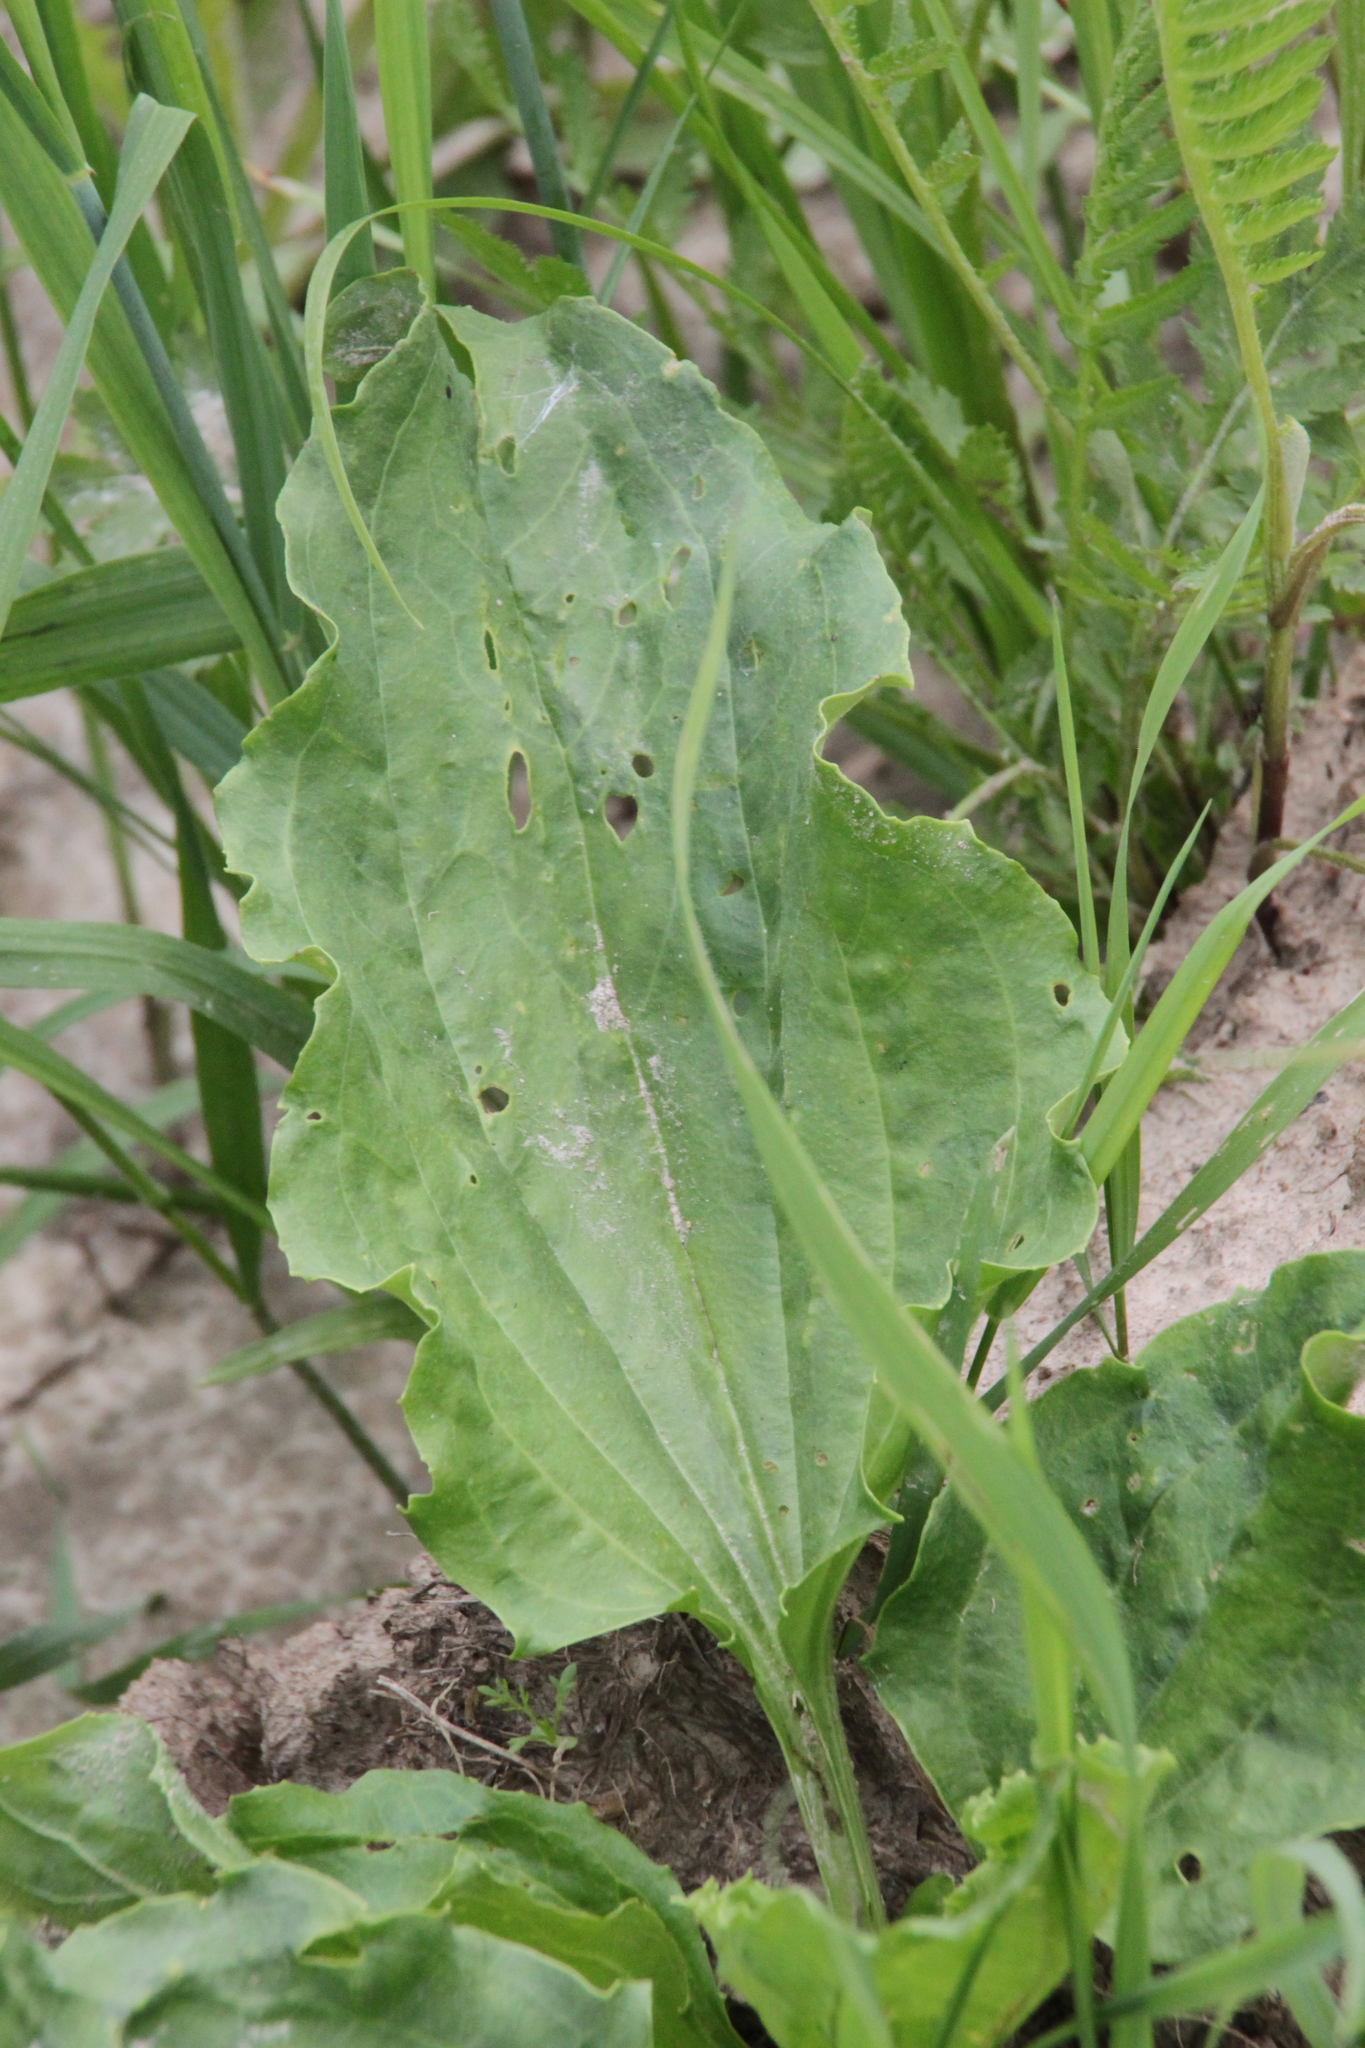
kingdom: Plantae
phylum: Tracheophyta
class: Magnoliopsida
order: Lamiales
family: Plantaginaceae
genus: Plantago
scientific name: Plantago major
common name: Common plantain
